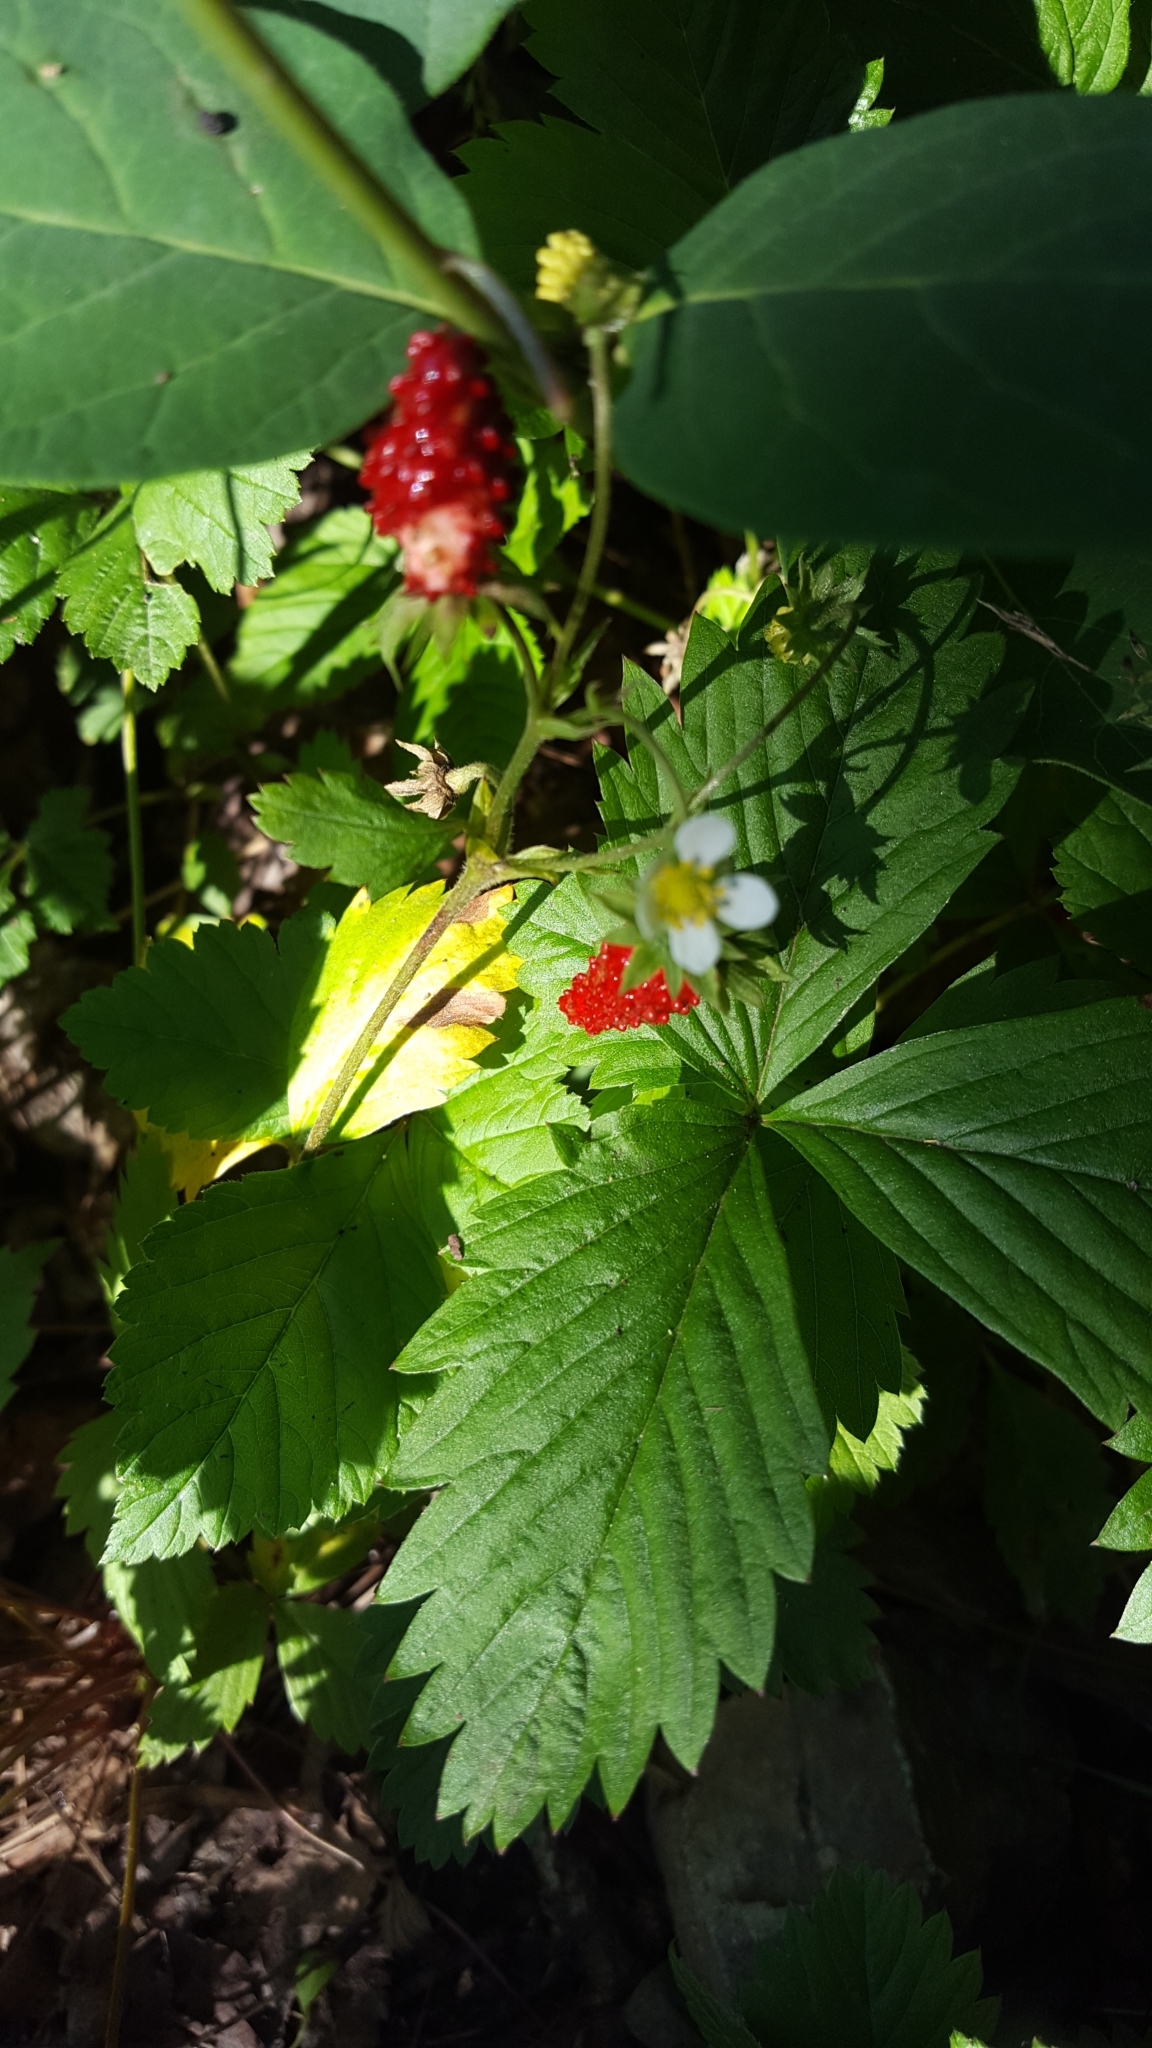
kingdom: Plantae
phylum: Tracheophyta
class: Magnoliopsida
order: Rosales
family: Rosaceae
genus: Fragaria
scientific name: Fragaria vesca
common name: Wild strawberry
